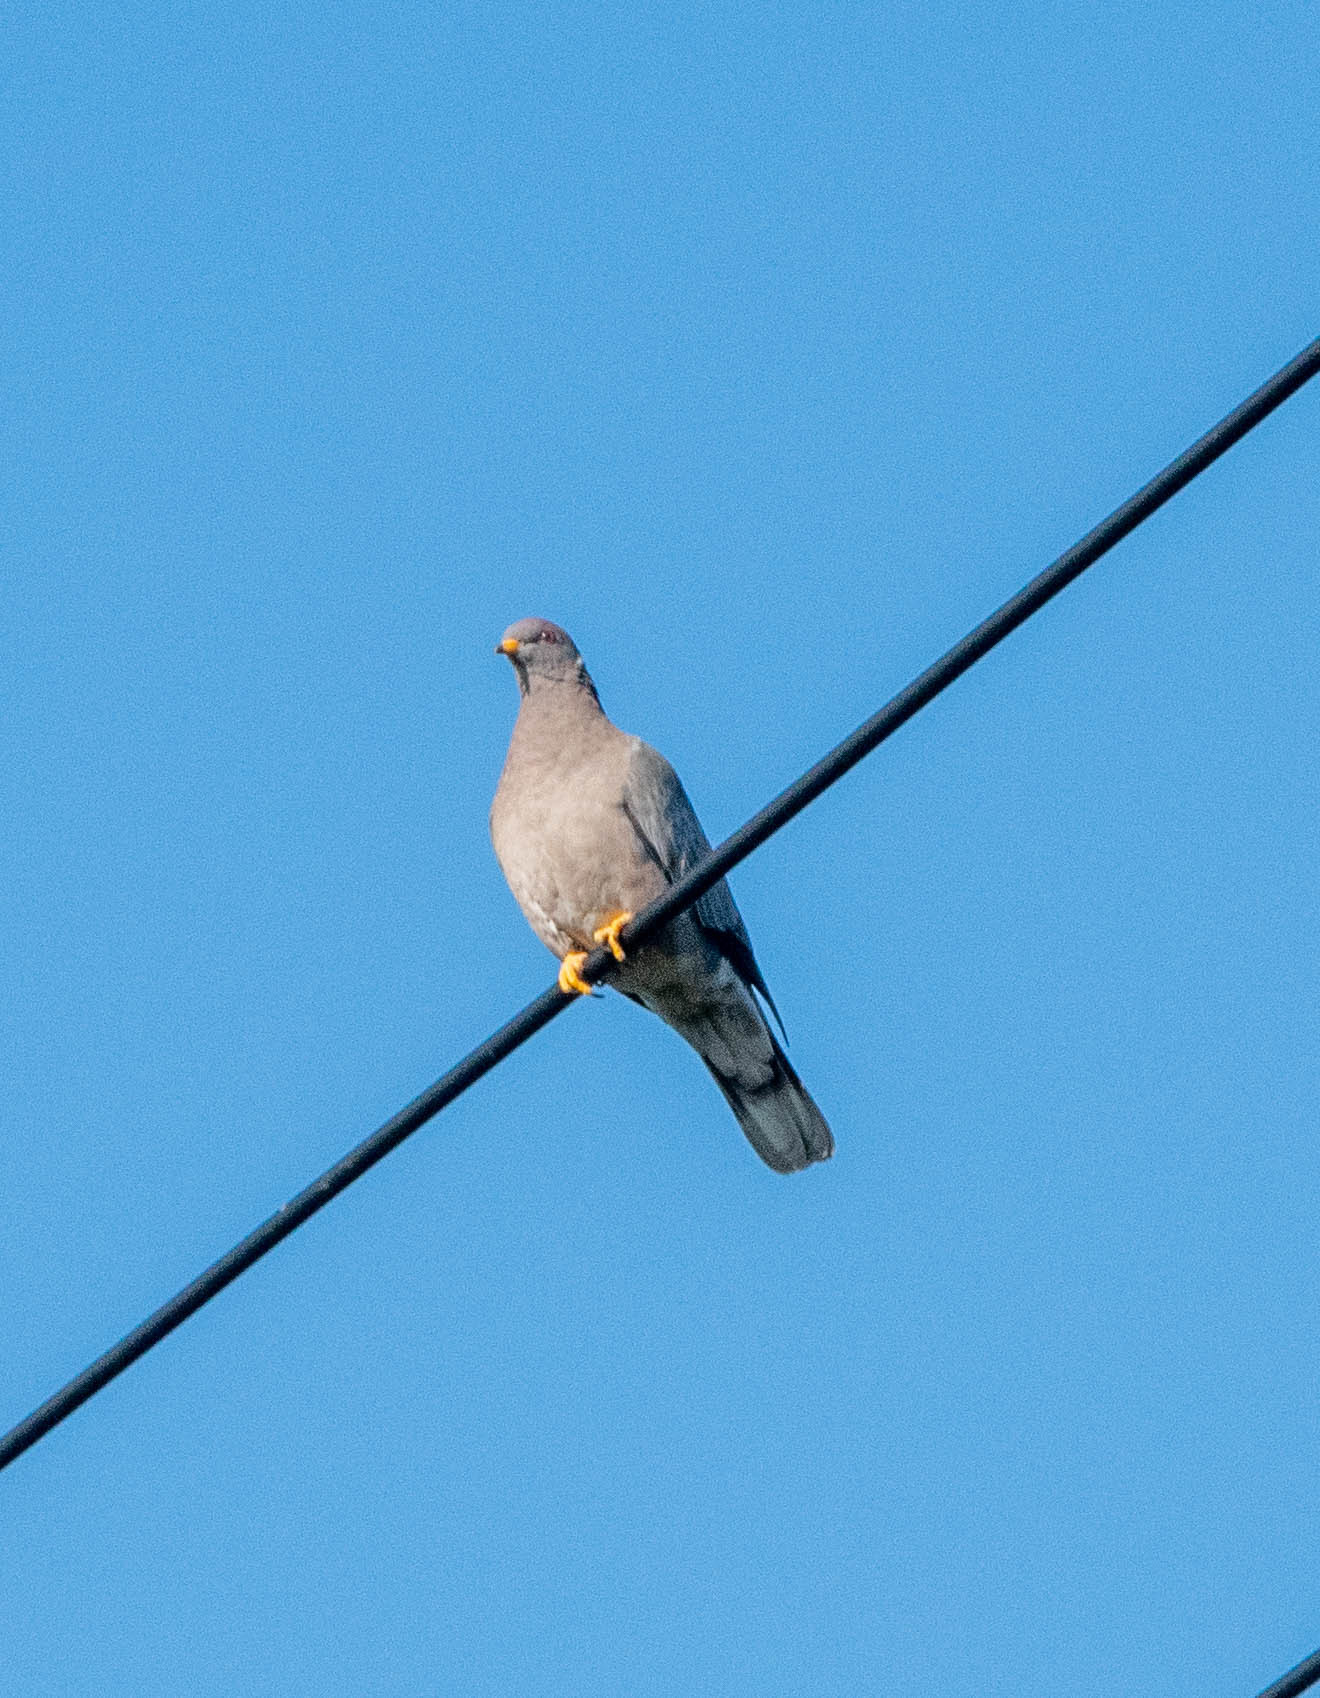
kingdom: Animalia
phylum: Chordata
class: Aves
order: Columbiformes
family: Columbidae
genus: Patagioenas
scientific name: Patagioenas fasciata
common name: Band-tailed pigeon
